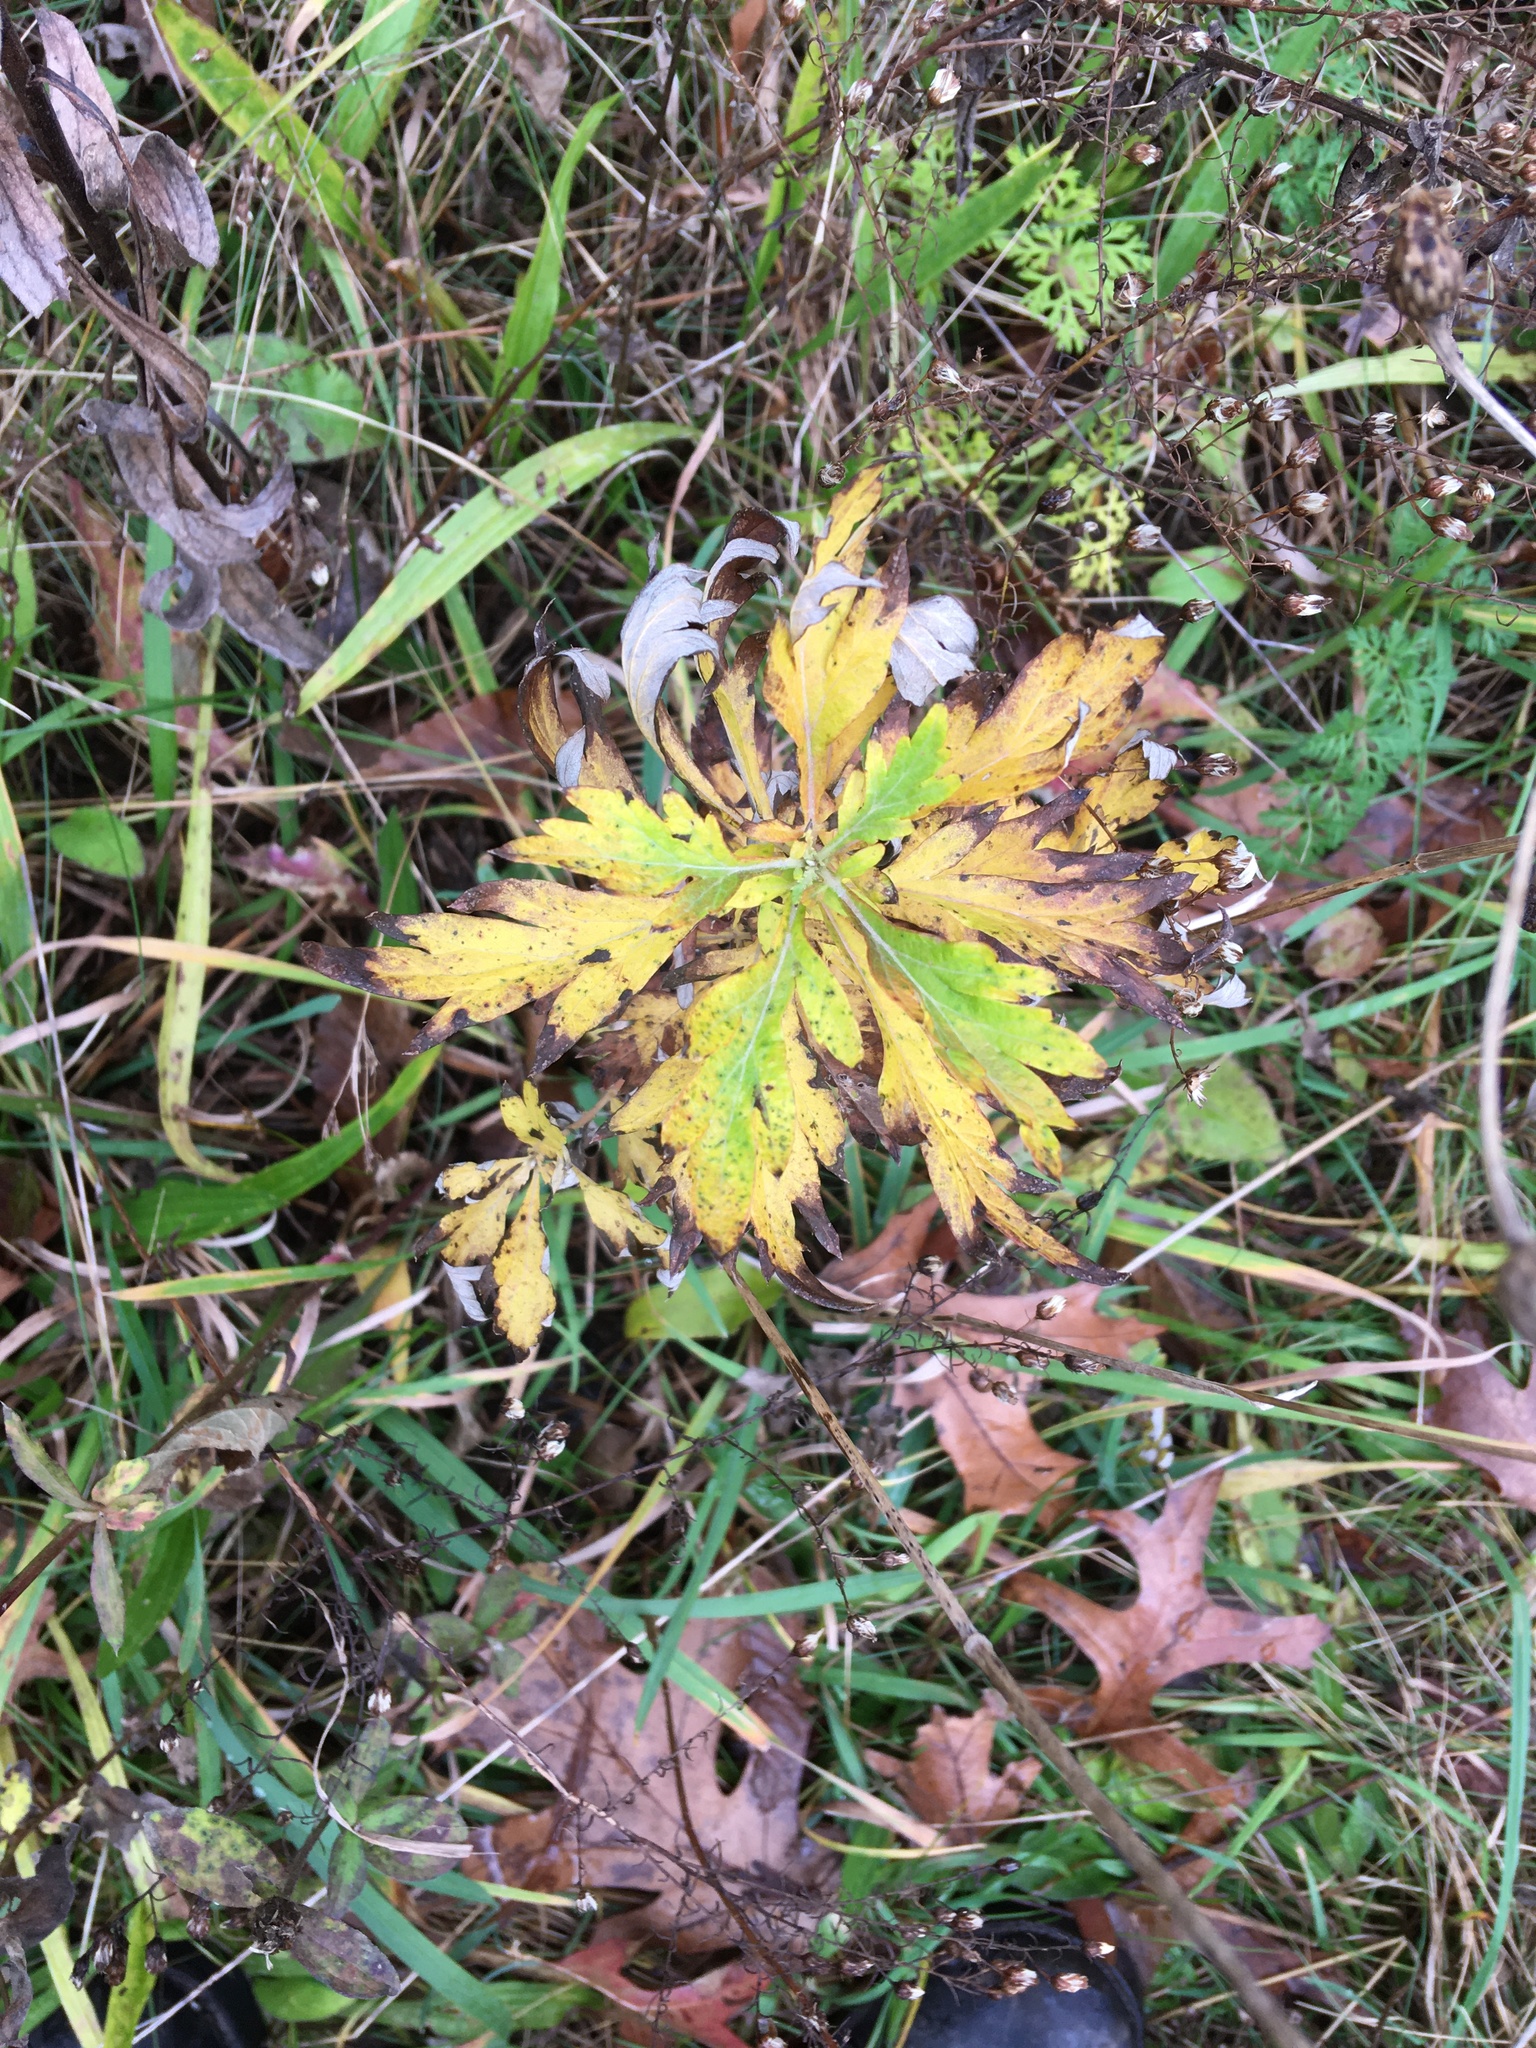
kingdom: Plantae
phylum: Tracheophyta
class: Magnoliopsida
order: Asterales
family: Asteraceae
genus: Artemisia
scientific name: Artemisia vulgaris
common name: Mugwort
